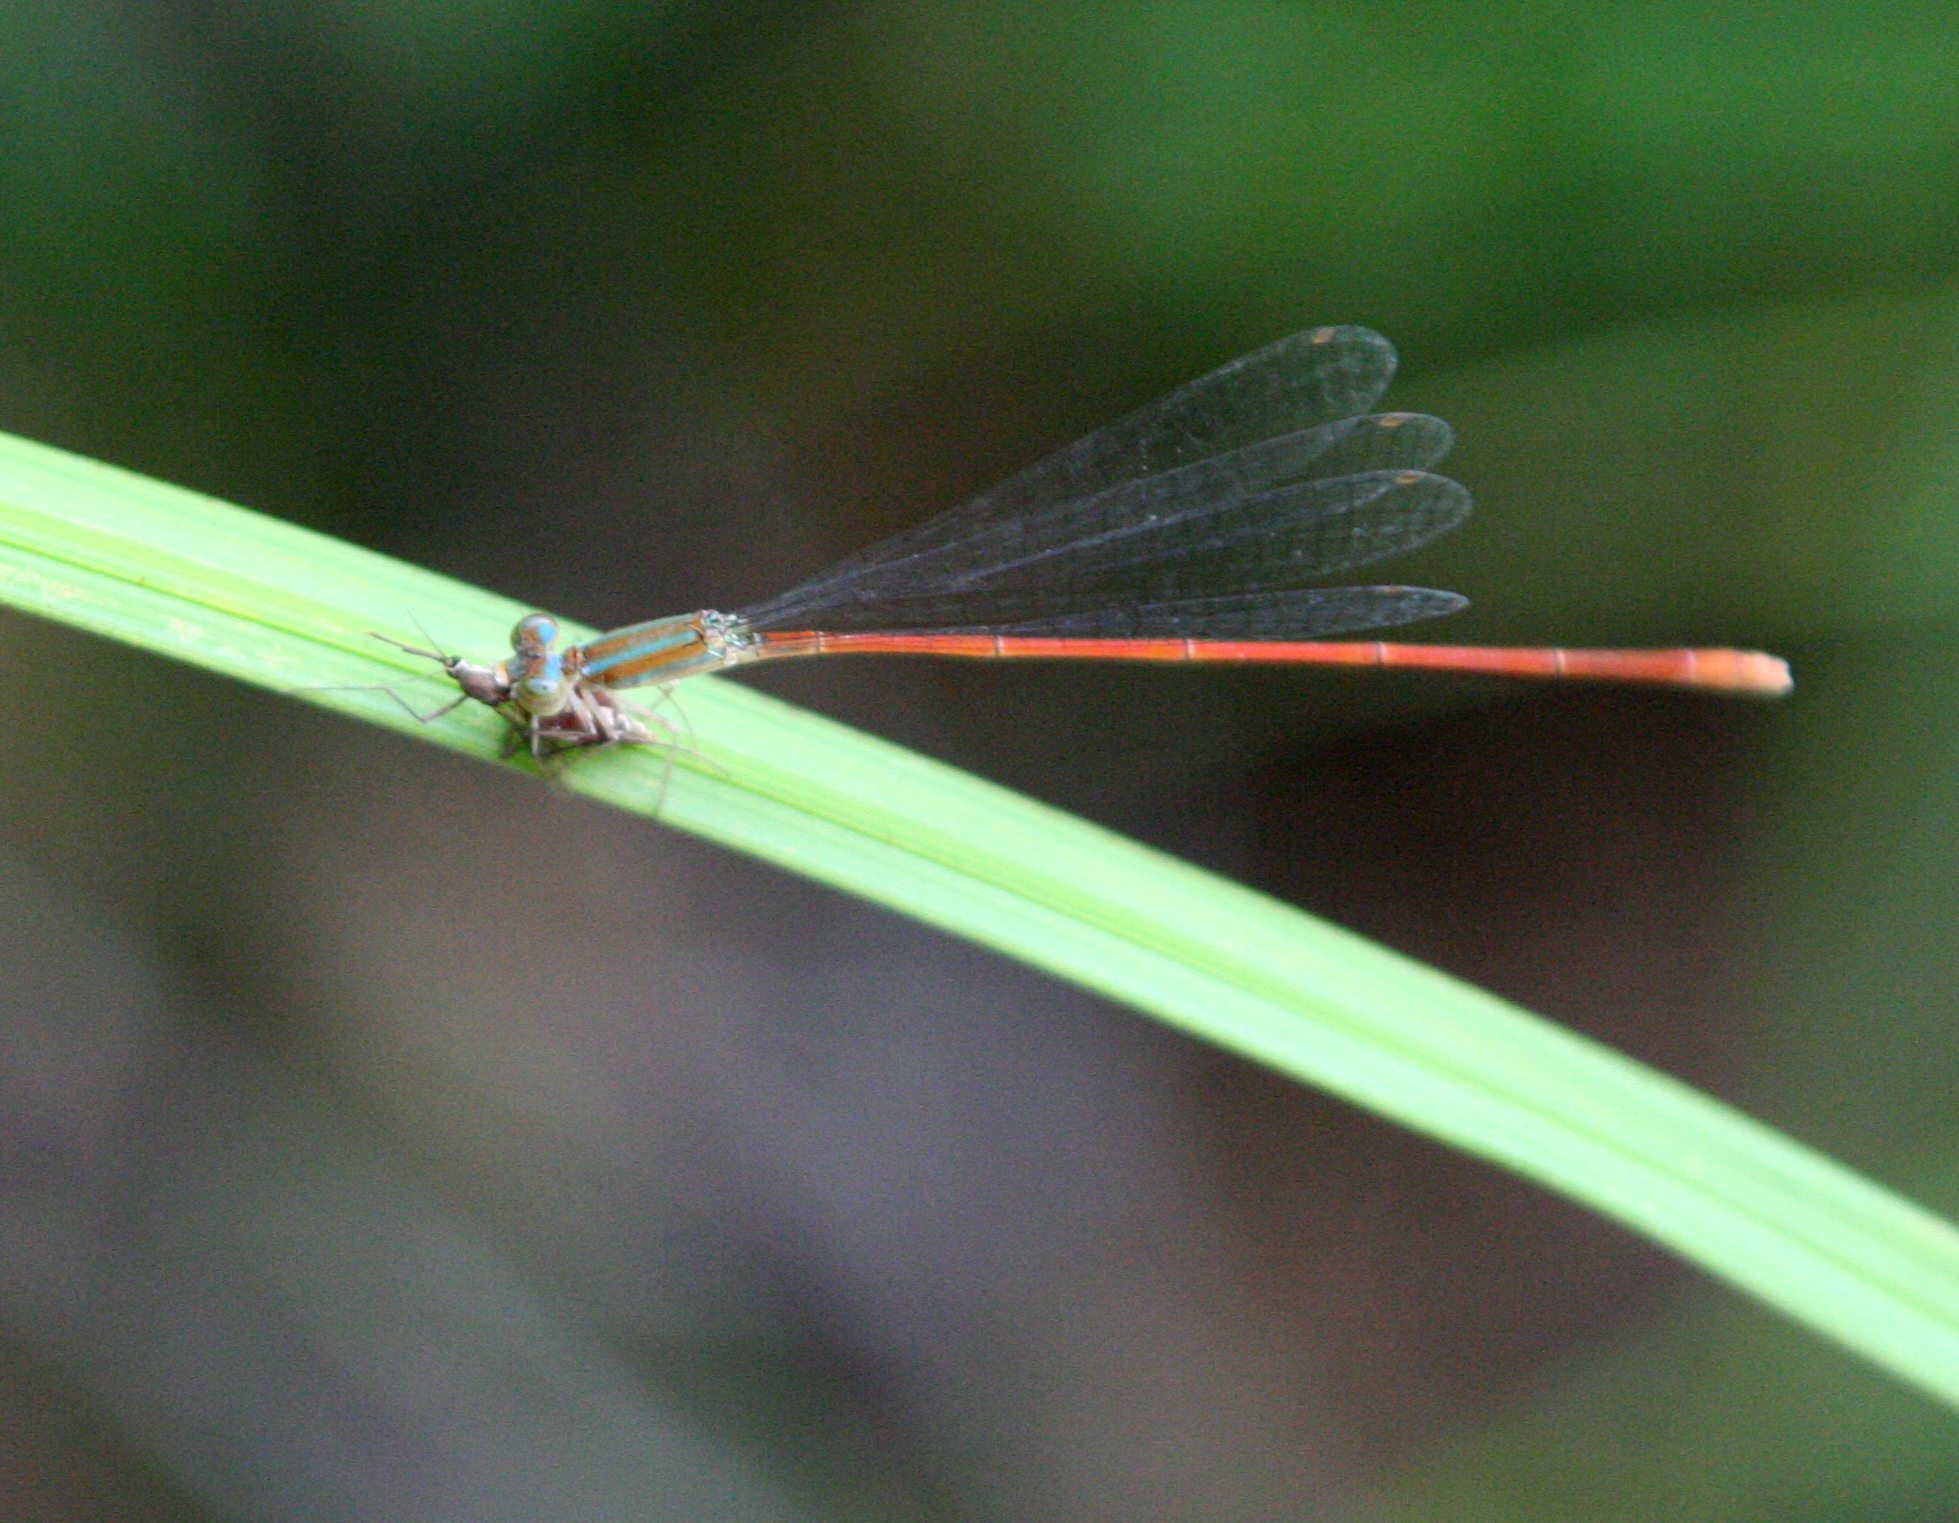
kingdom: Animalia
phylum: Arthropoda
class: Insecta
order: Odonata
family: Coenagrionidae
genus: Aciagrion
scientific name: Aciagrion pallidum
